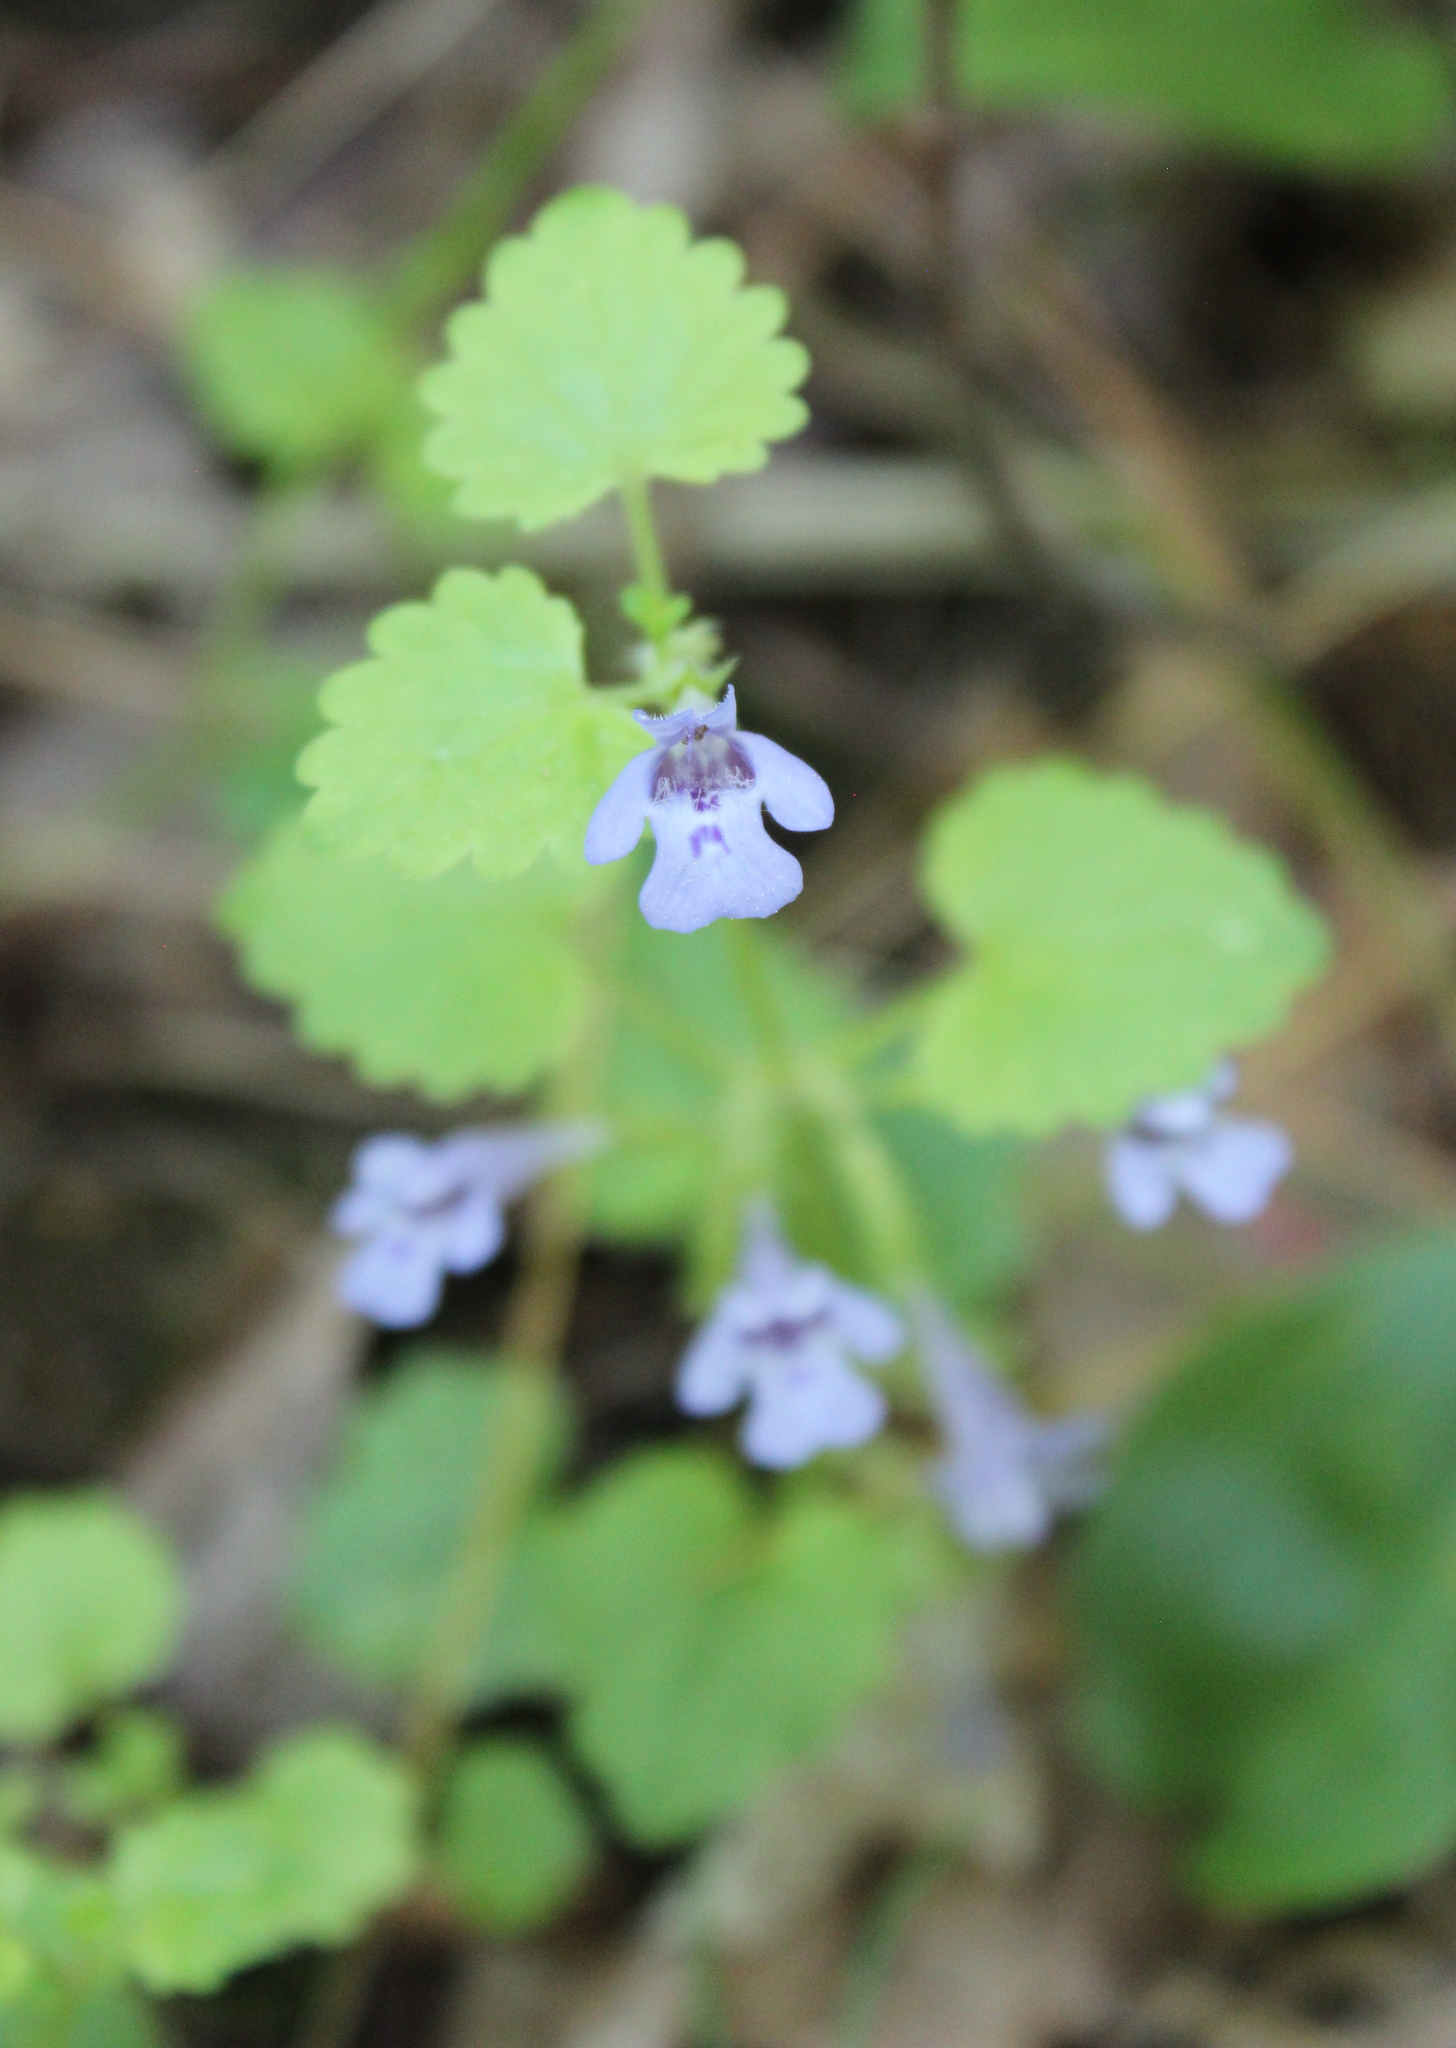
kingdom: Plantae
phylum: Tracheophyta
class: Magnoliopsida
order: Lamiales
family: Lamiaceae
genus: Glechoma
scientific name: Glechoma hederacea
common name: Ground ivy
